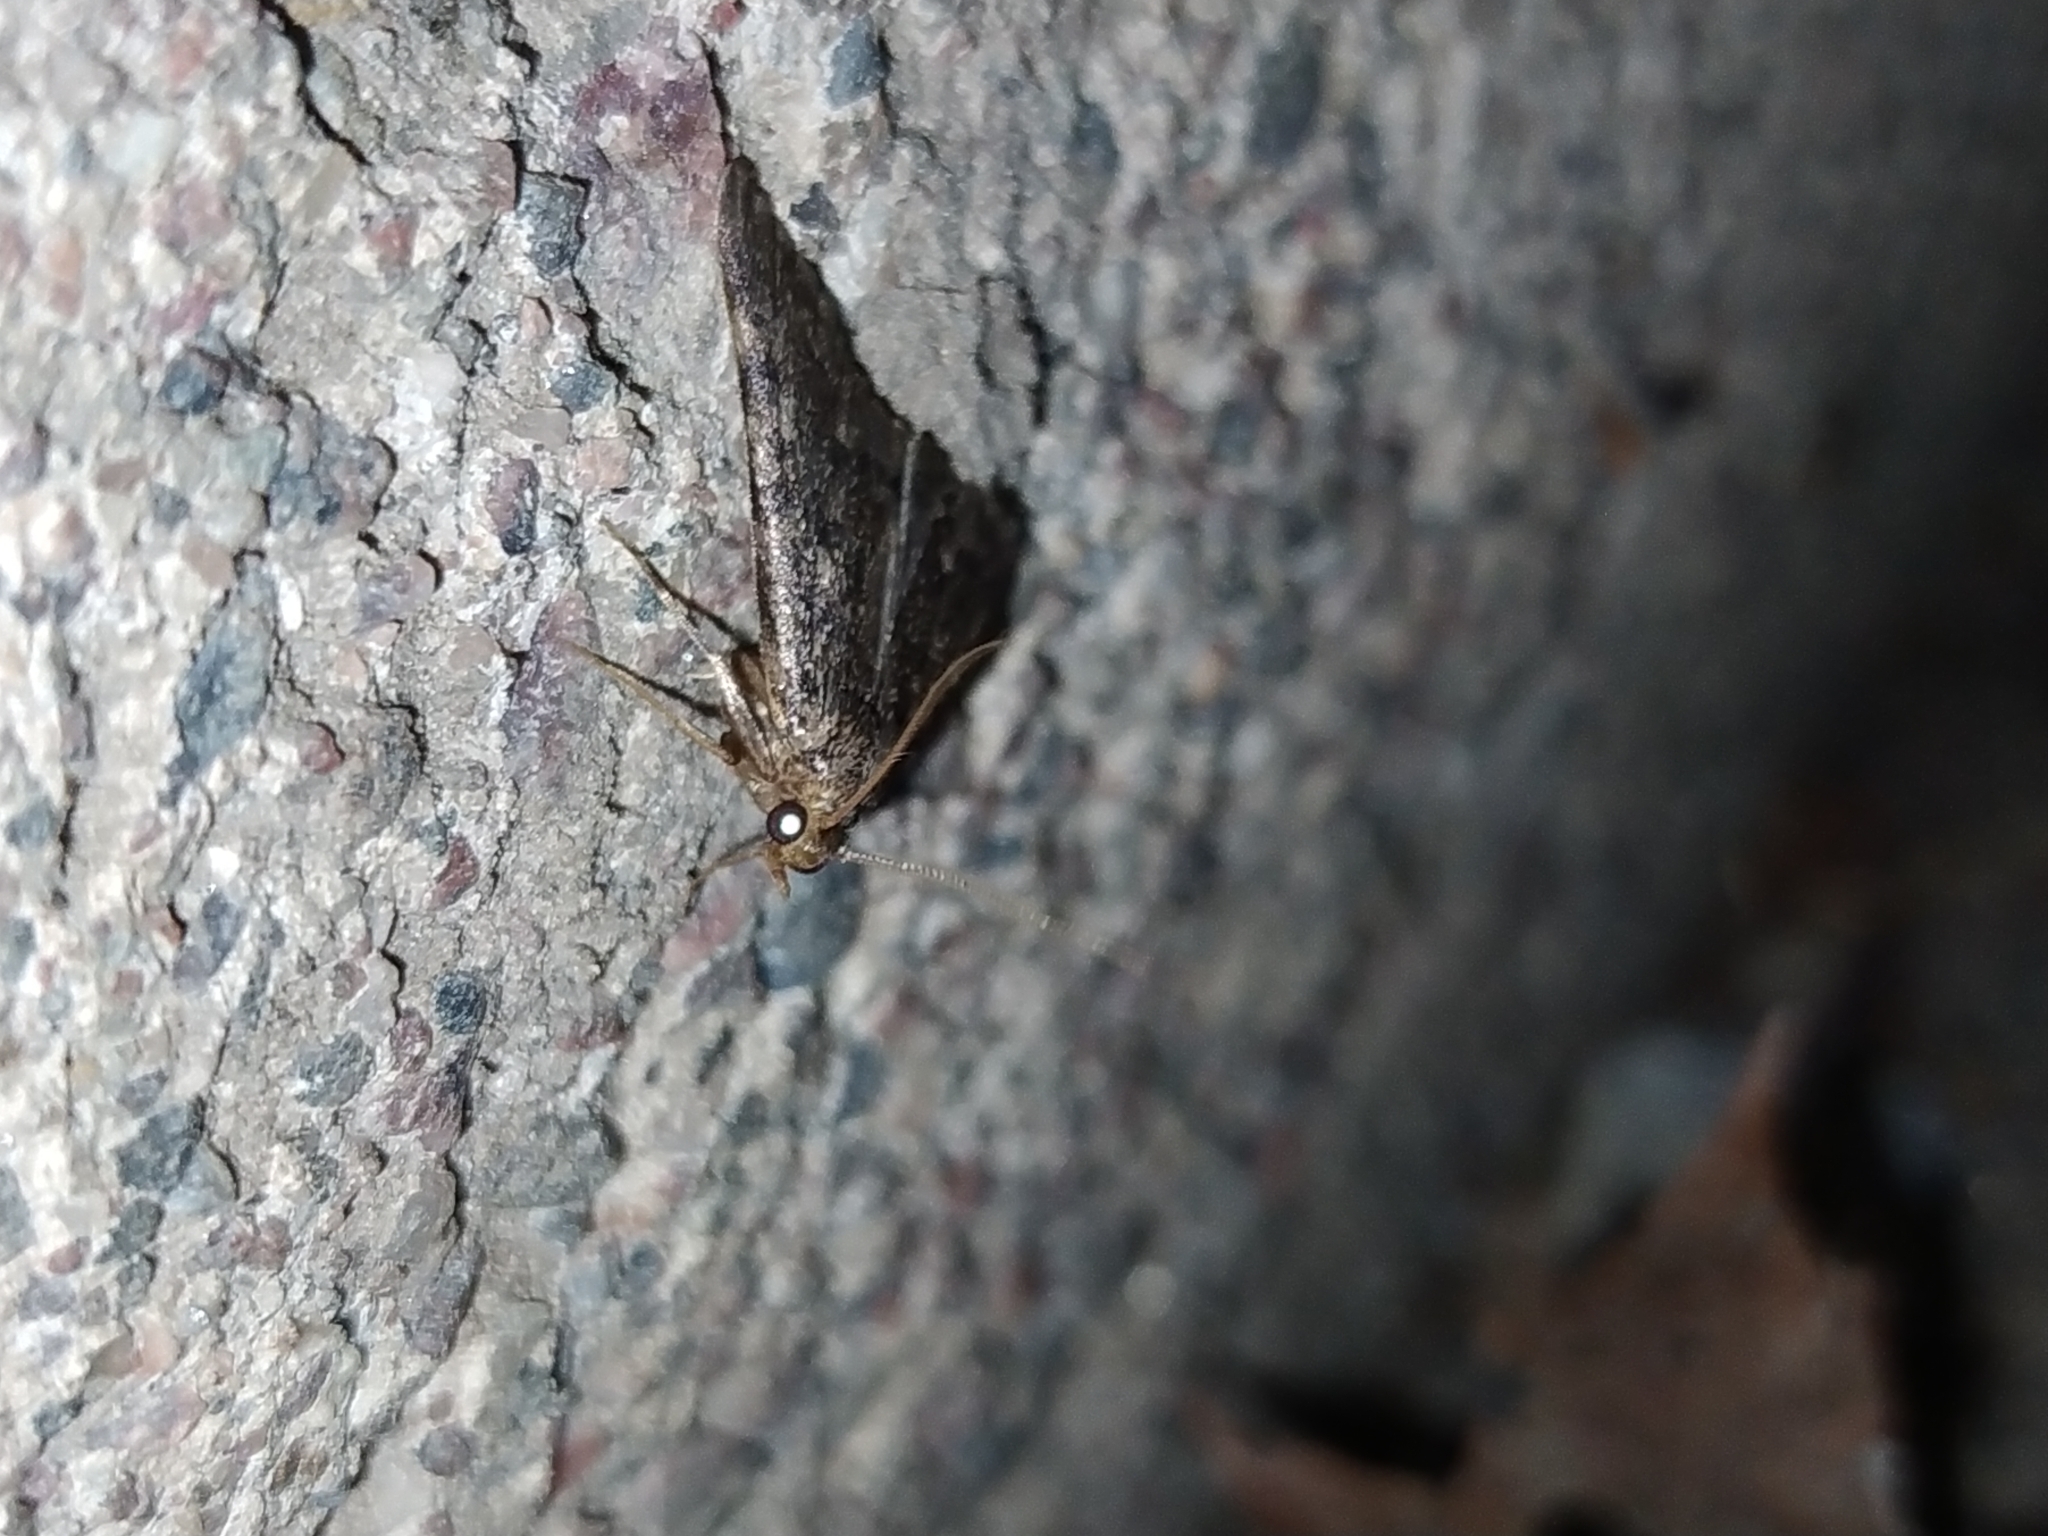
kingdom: Animalia
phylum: Arthropoda
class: Insecta
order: Lepidoptera
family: Pyralidae
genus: Aglossa
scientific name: Aglossa pinguinalis
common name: Large tabby
